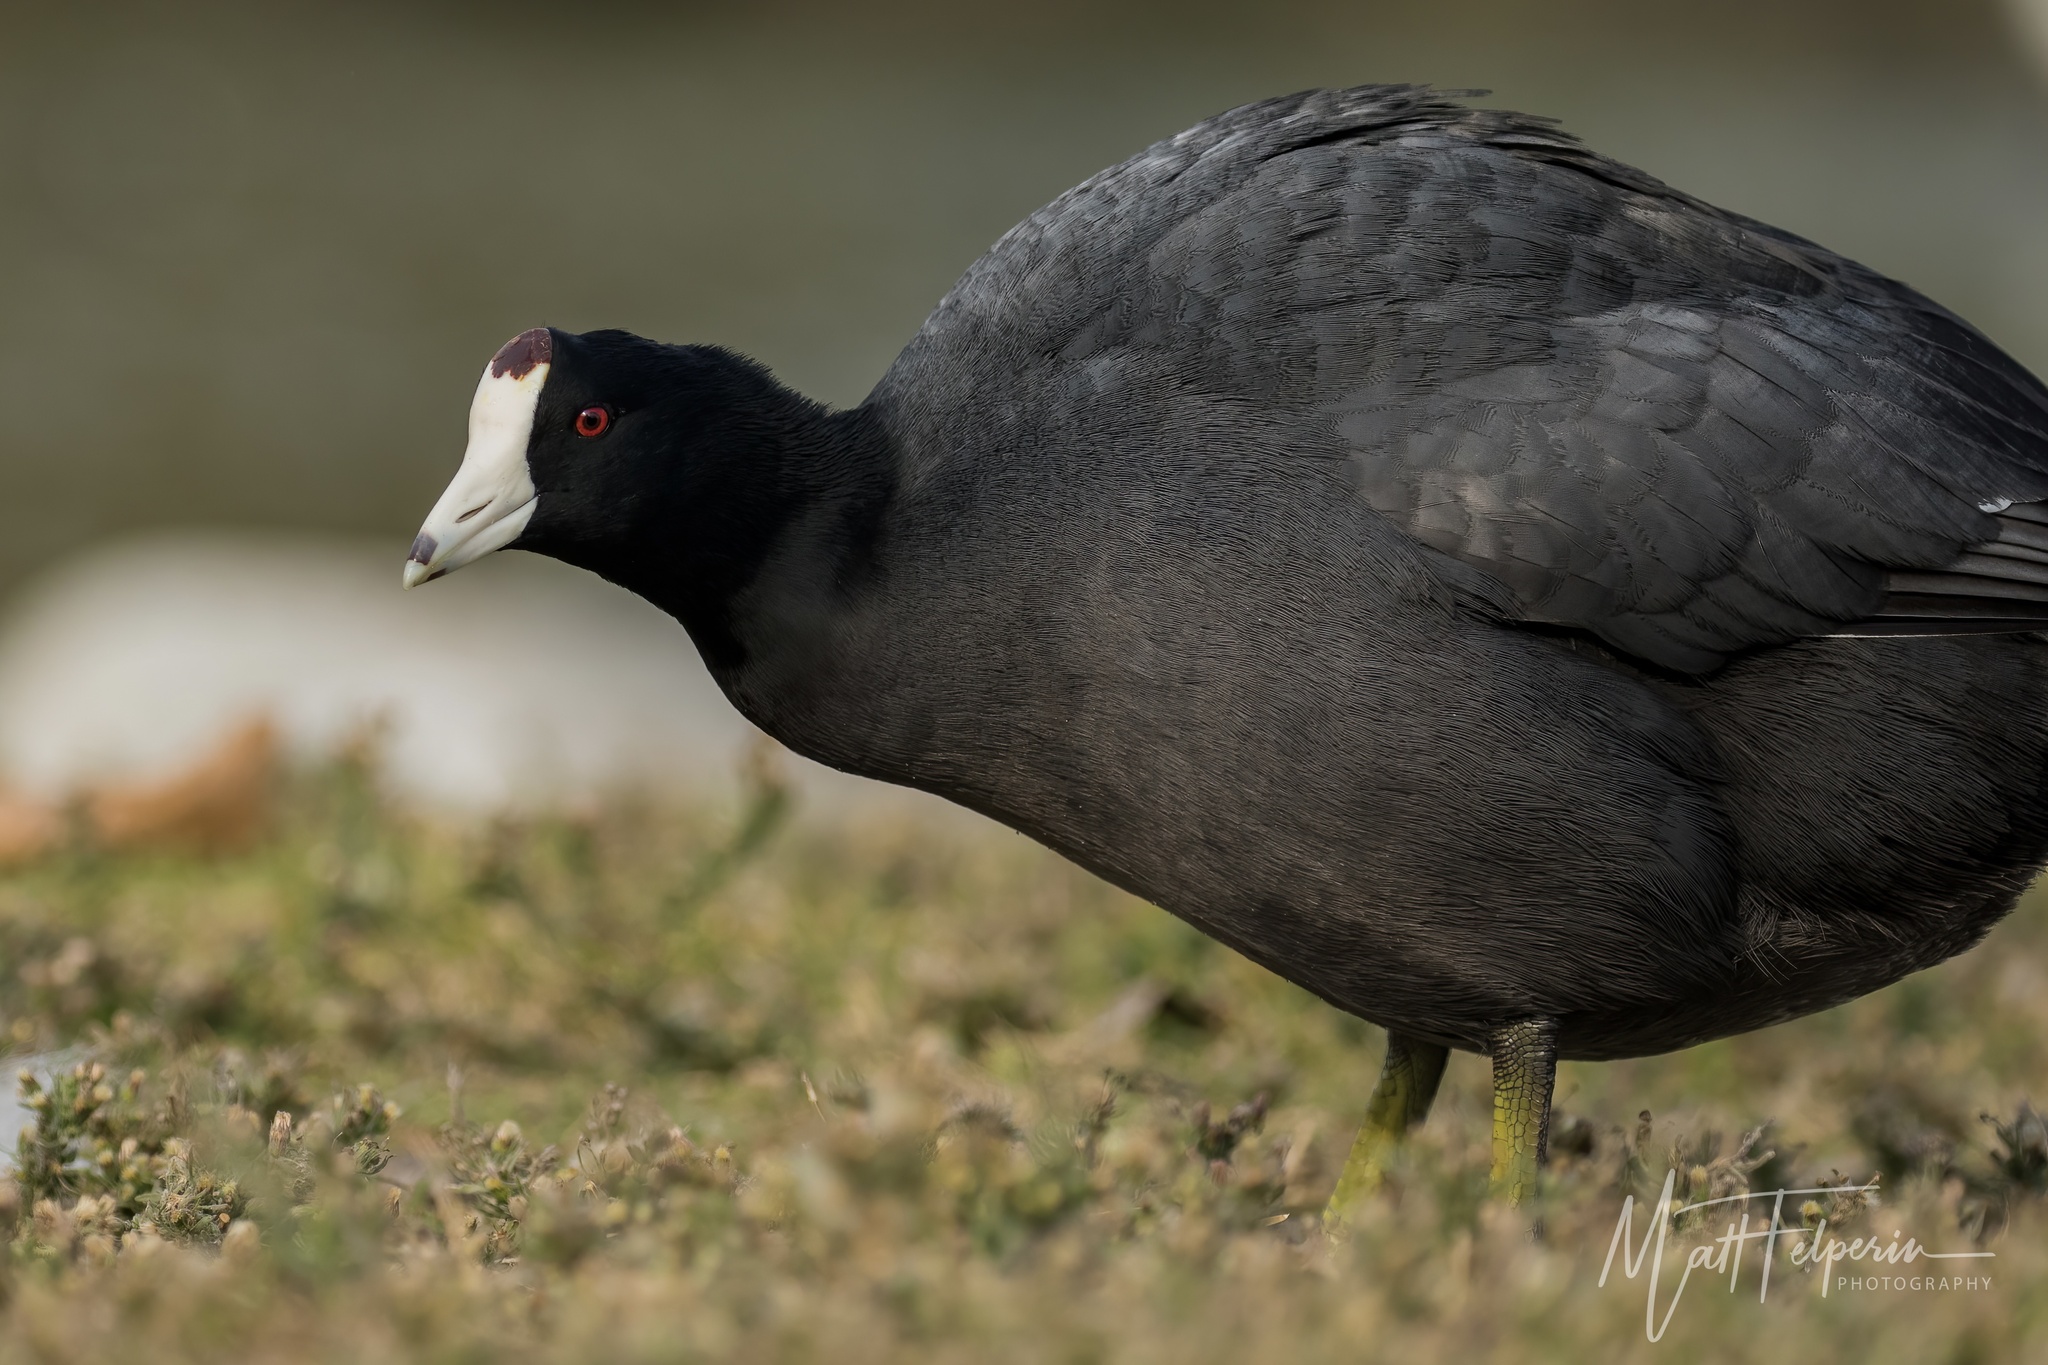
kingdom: Animalia
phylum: Chordata
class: Aves
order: Gruiformes
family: Rallidae
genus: Fulica
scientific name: Fulica americana
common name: American coot
